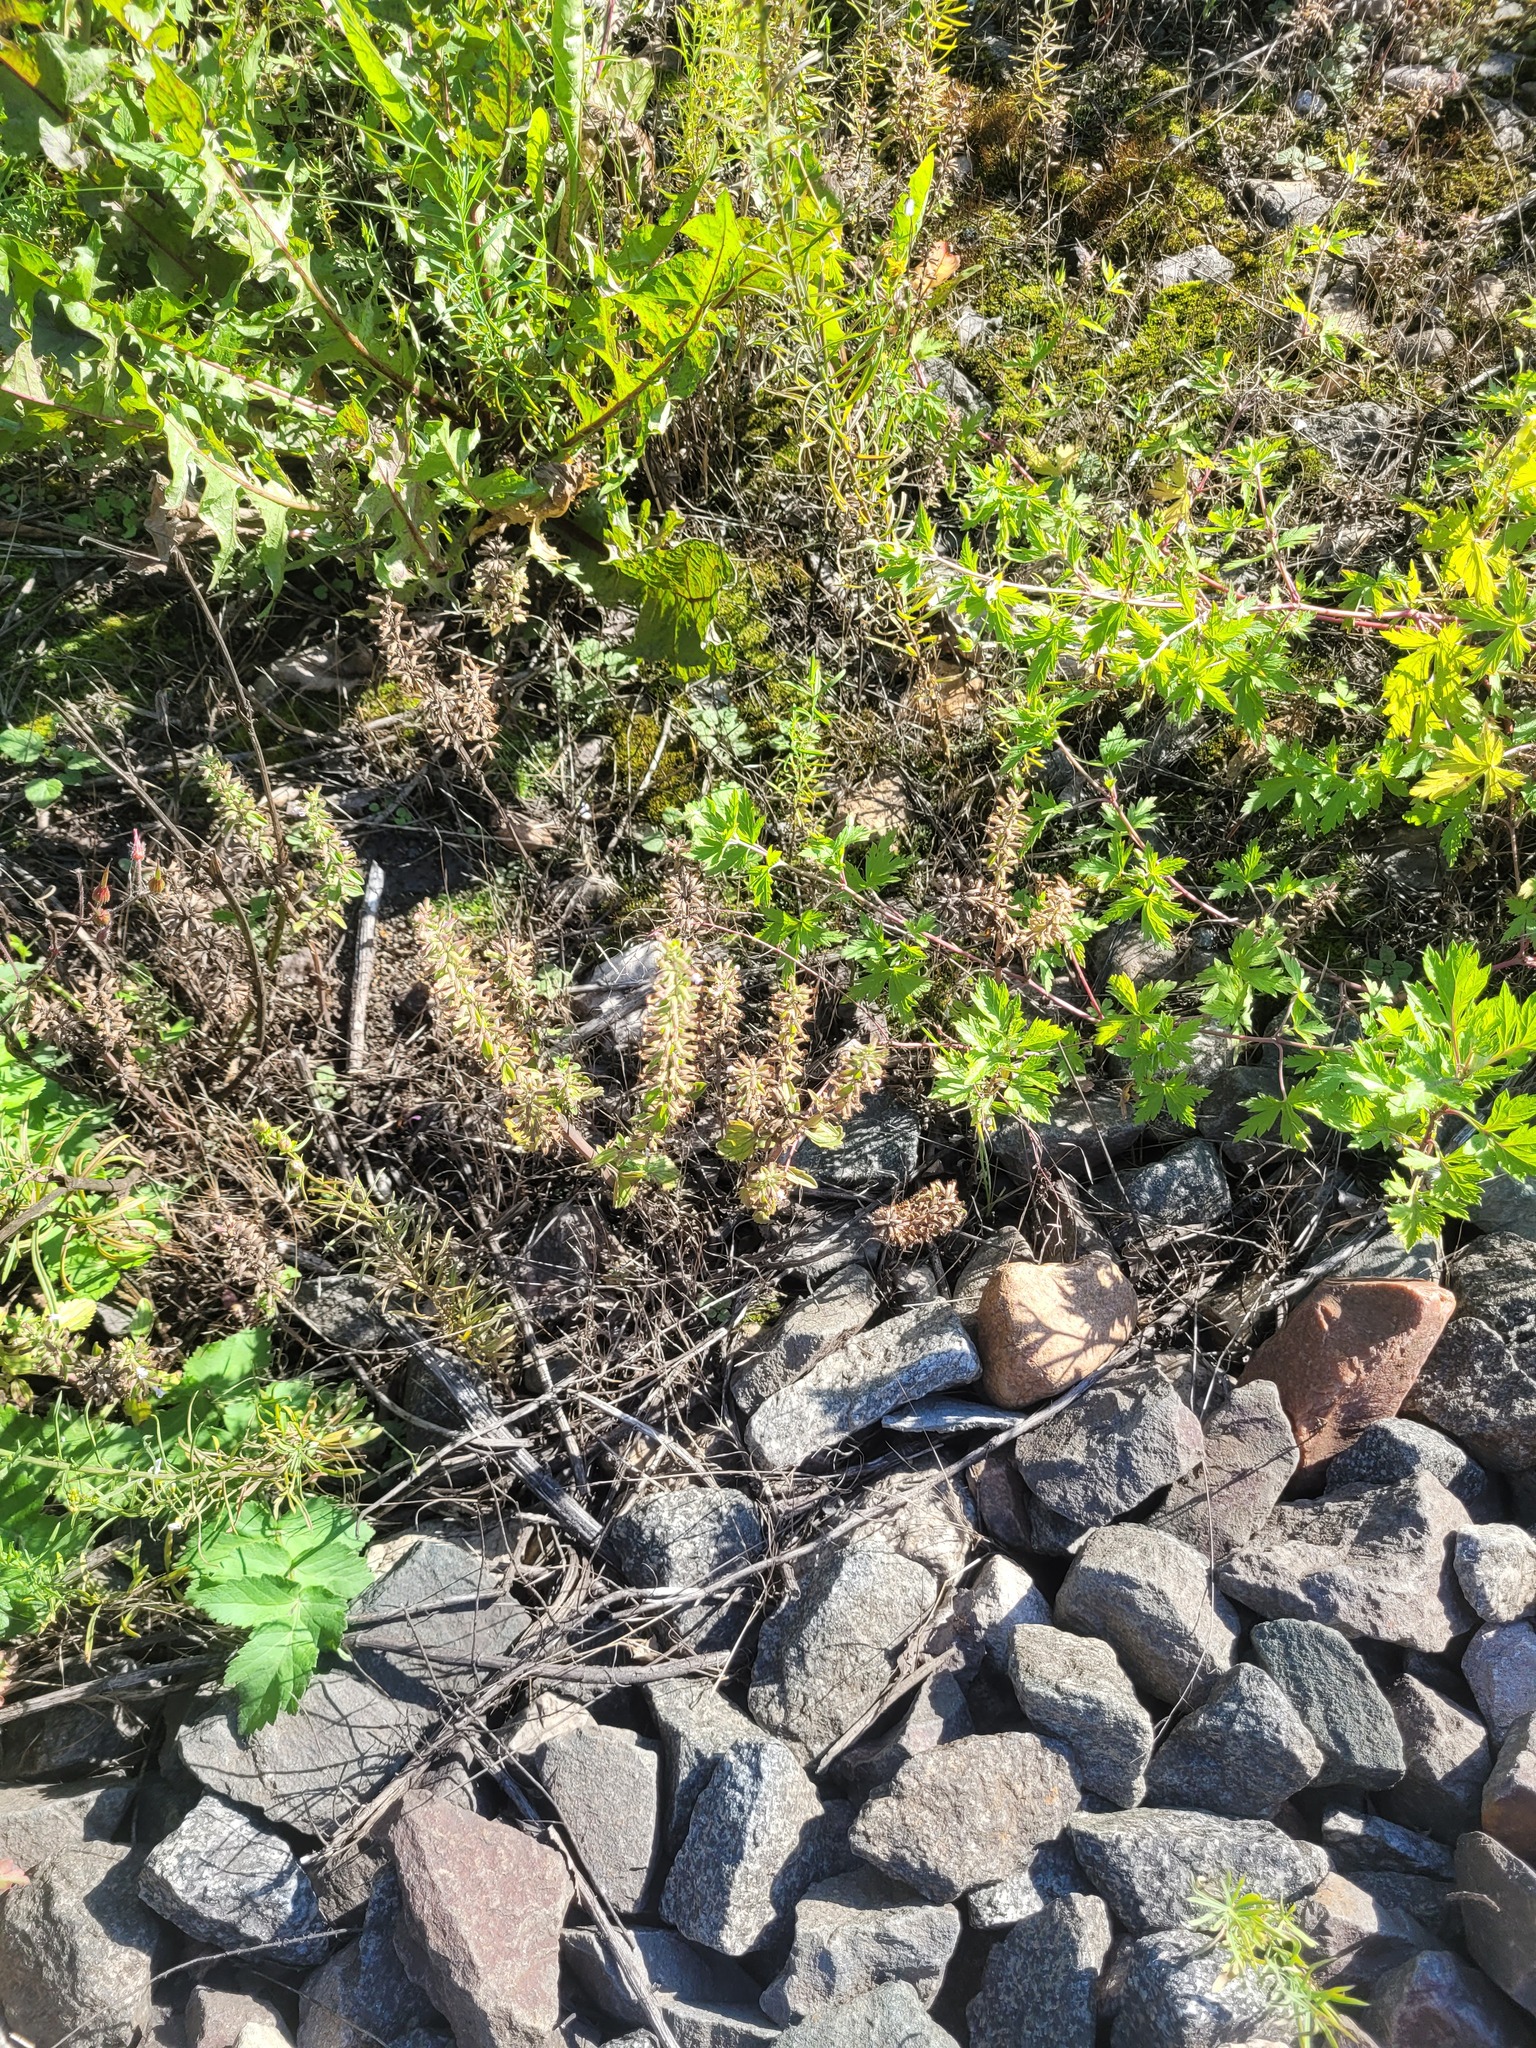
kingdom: Plantae
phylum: Tracheophyta
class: Magnoliopsida
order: Lamiales
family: Lamiaceae
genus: Dracocephalum
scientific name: Dracocephalum thymiflorum
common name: Thymeleaf dragonhead
